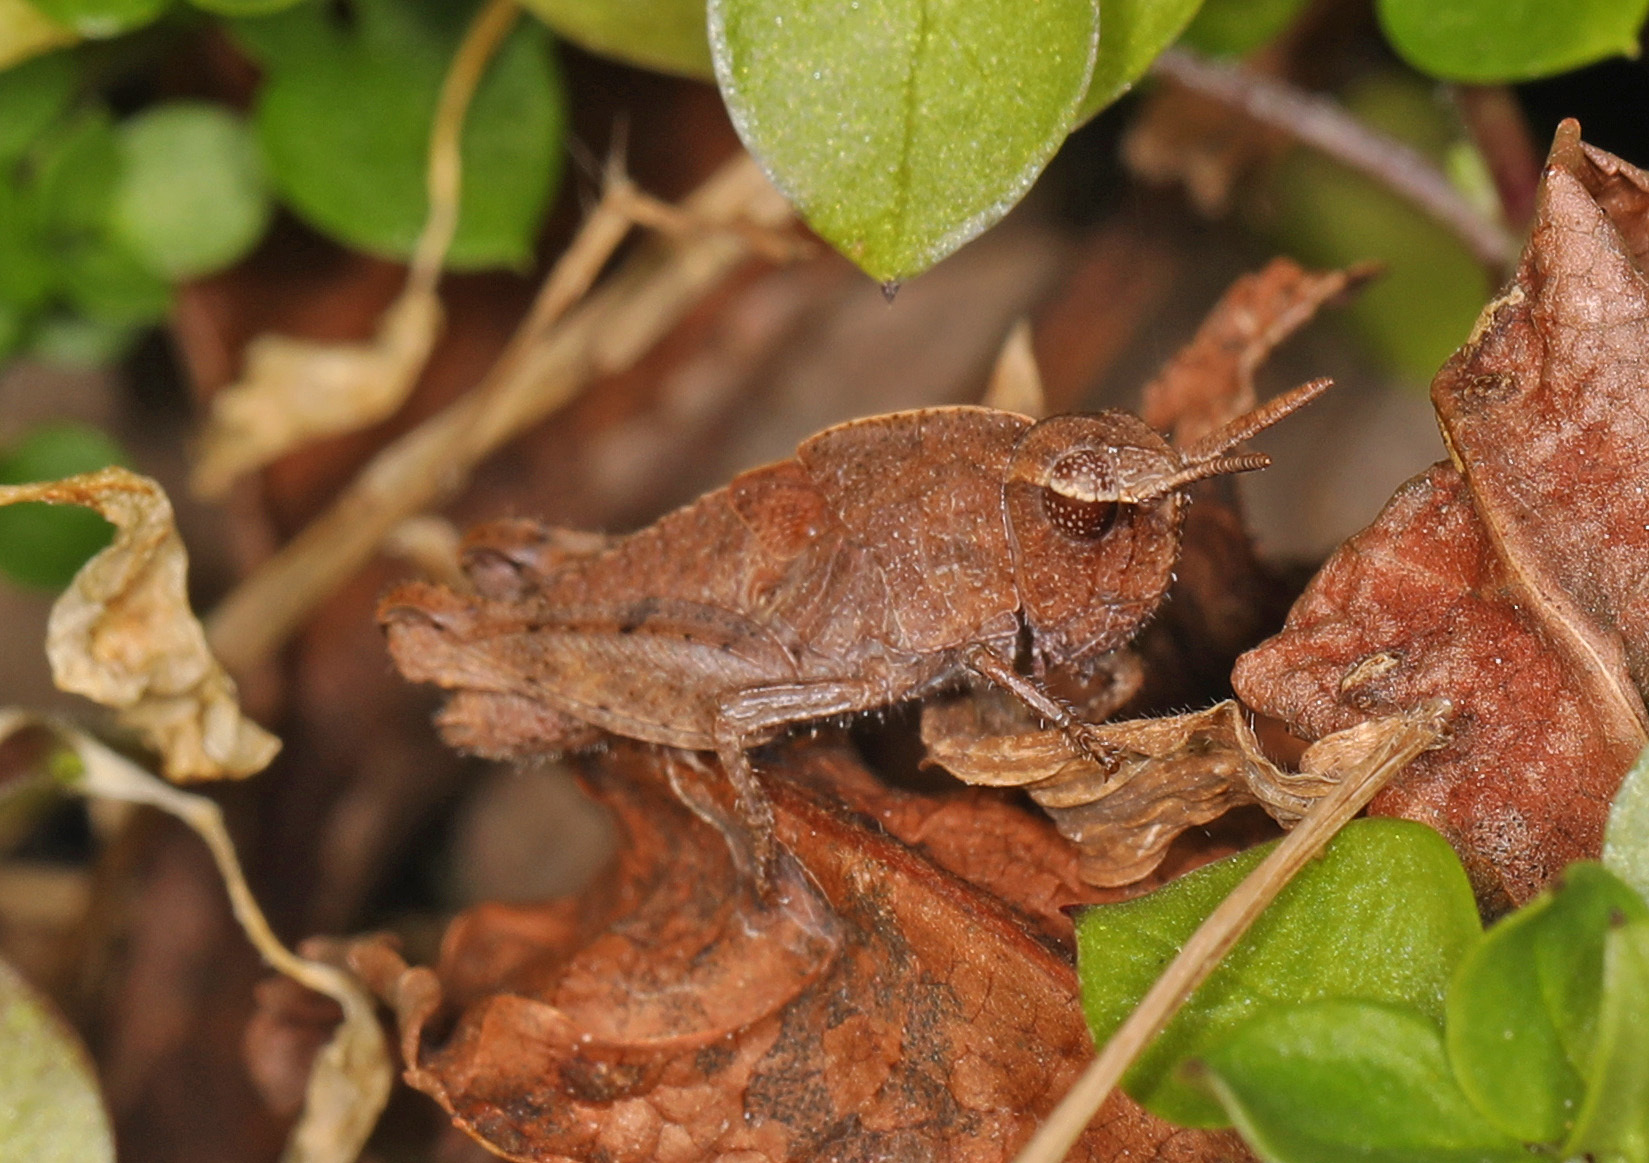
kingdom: Animalia
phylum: Arthropoda
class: Insecta
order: Orthoptera
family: Acrididae
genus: Chortophaga
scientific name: Chortophaga viridifasciata
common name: Green-striped grasshopper
